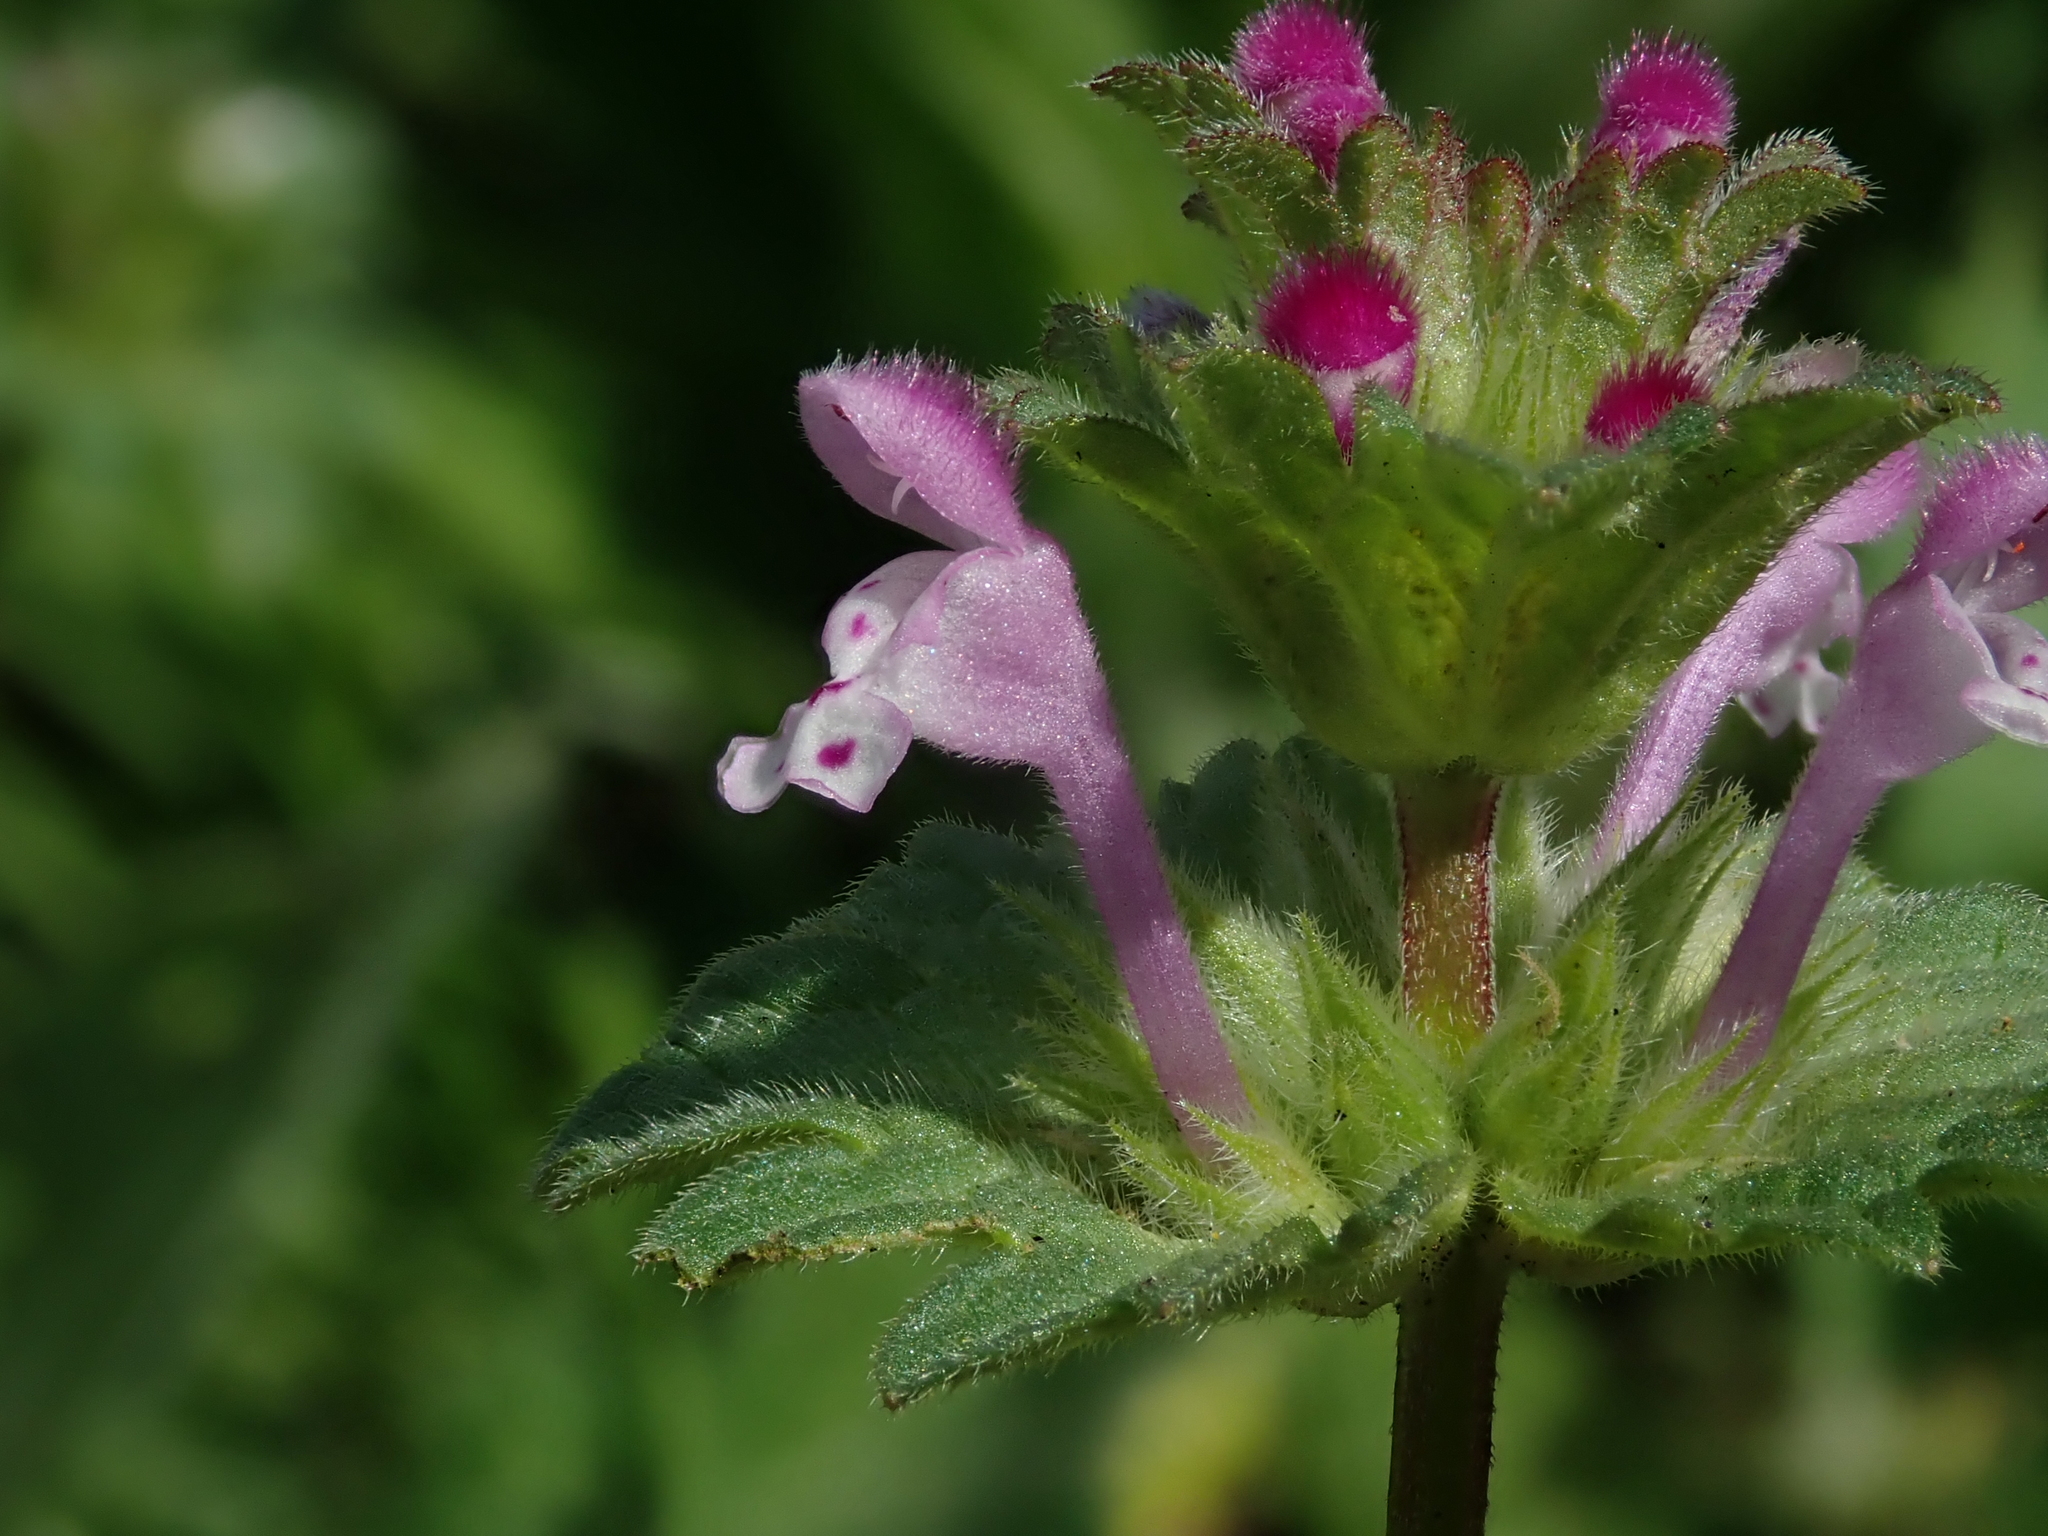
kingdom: Plantae
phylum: Tracheophyta
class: Magnoliopsida
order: Lamiales
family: Lamiaceae
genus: Lamium
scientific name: Lamium amplexicaule
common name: Henbit dead-nettle
